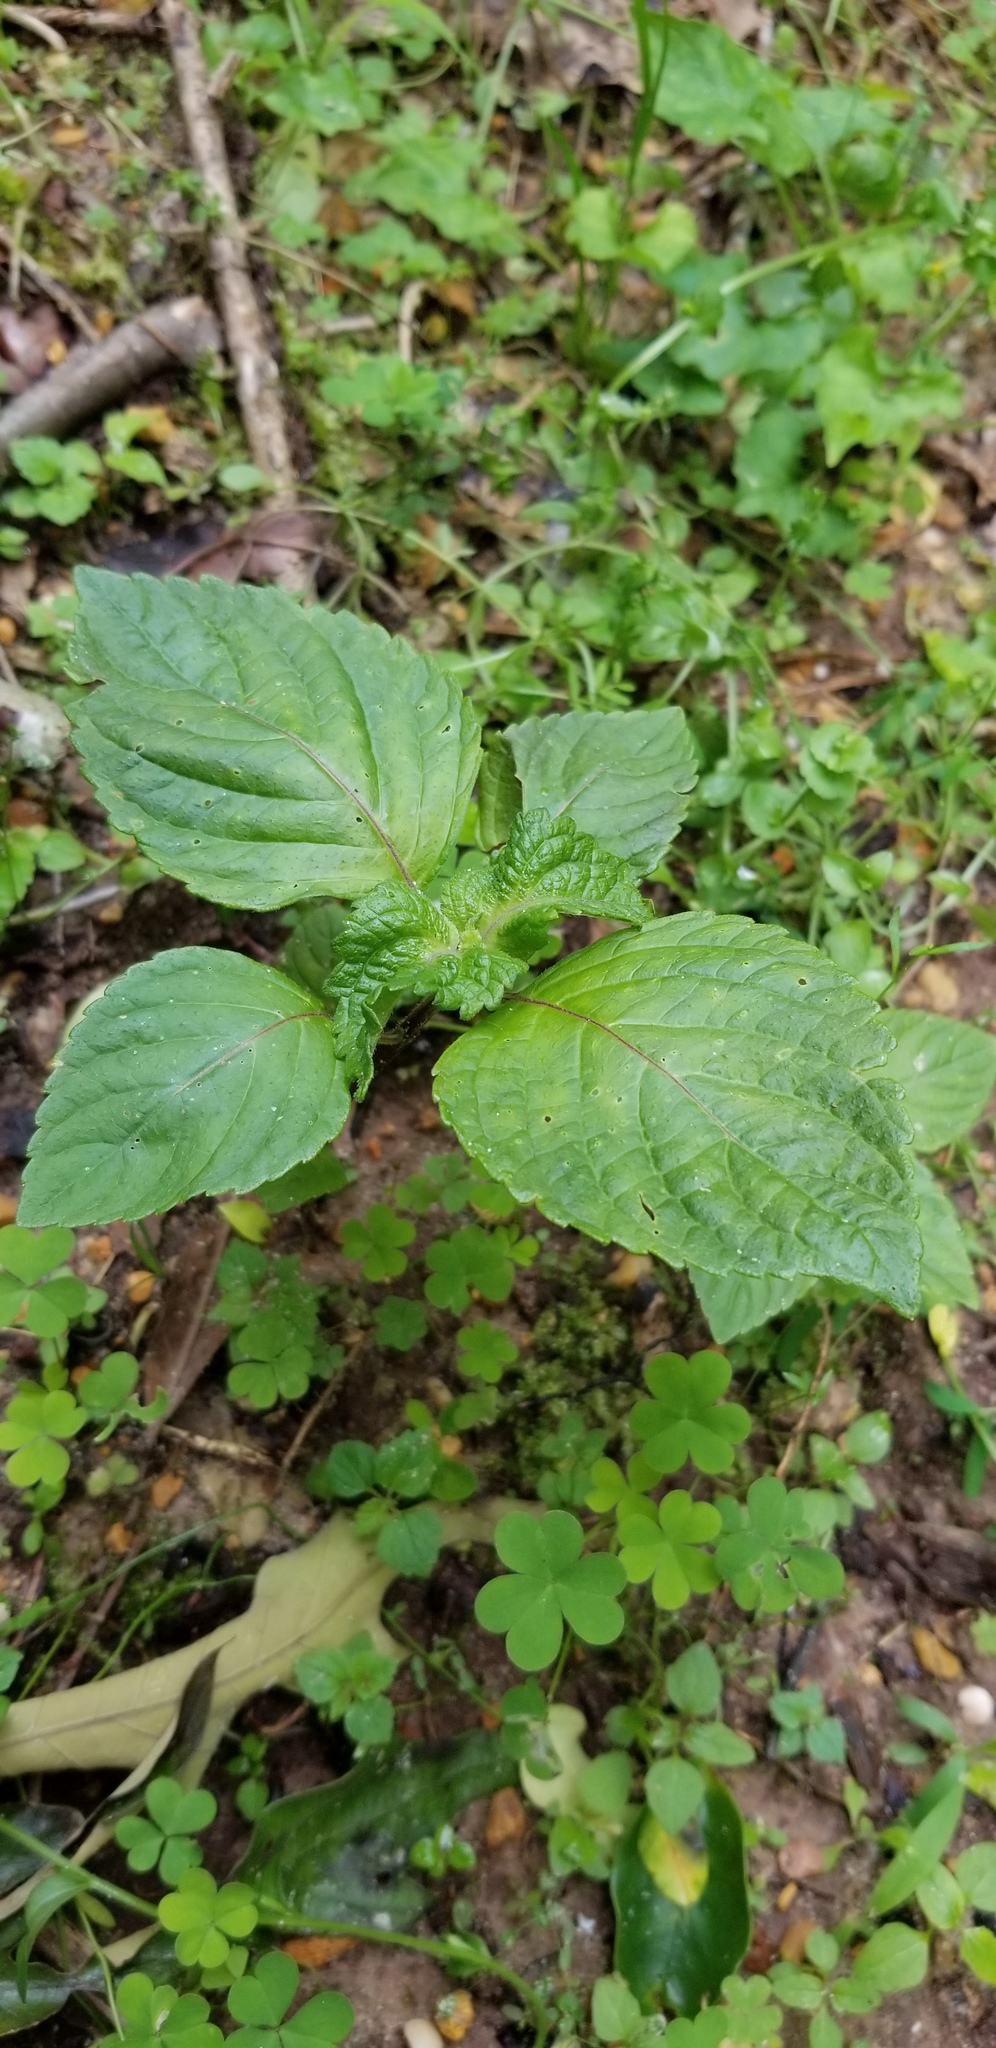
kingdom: Plantae
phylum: Tracheophyta
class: Magnoliopsida
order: Lamiales
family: Lamiaceae
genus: Perilla
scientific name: Perilla frutescens
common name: Perilla
